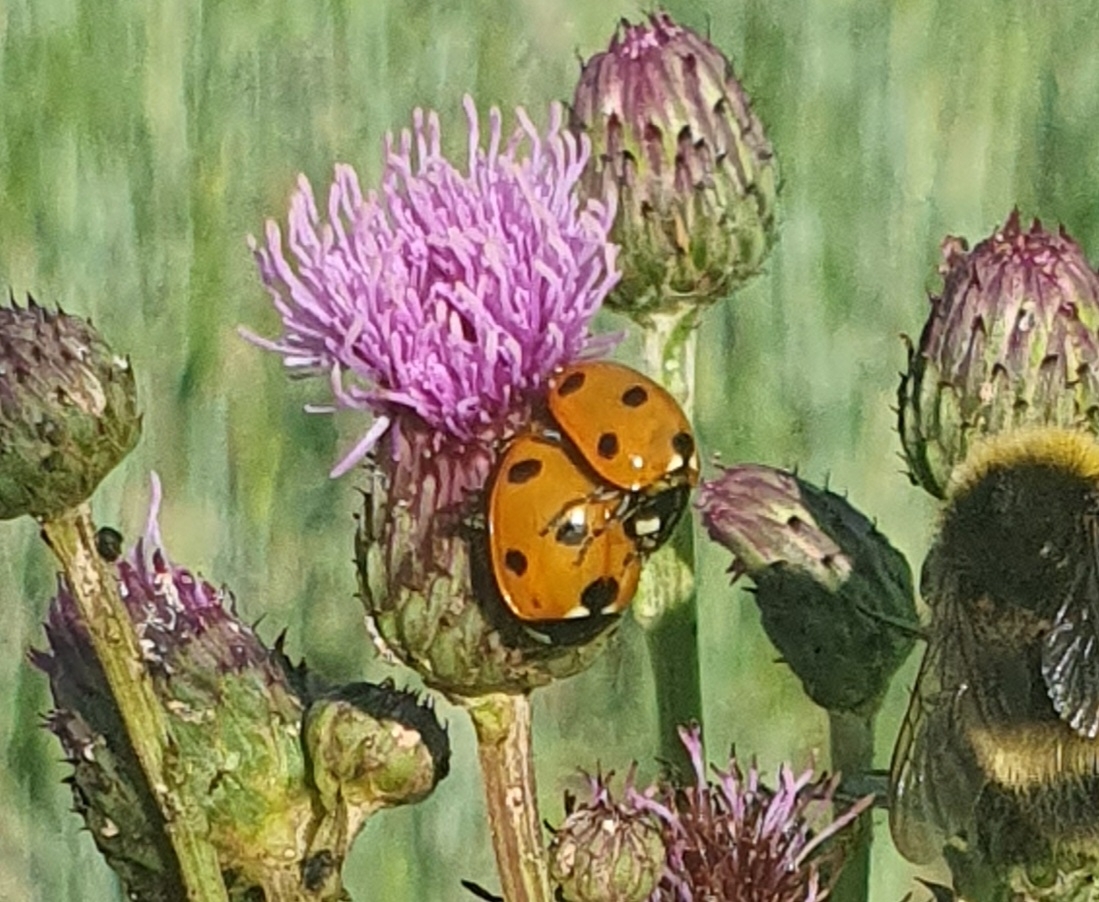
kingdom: Animalia
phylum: Arthropoda
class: Insecta
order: Coleoptera
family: Coccinellidae
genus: Coccinella
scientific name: Coccinella septempunctata
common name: Sevenspotted lady beetle
